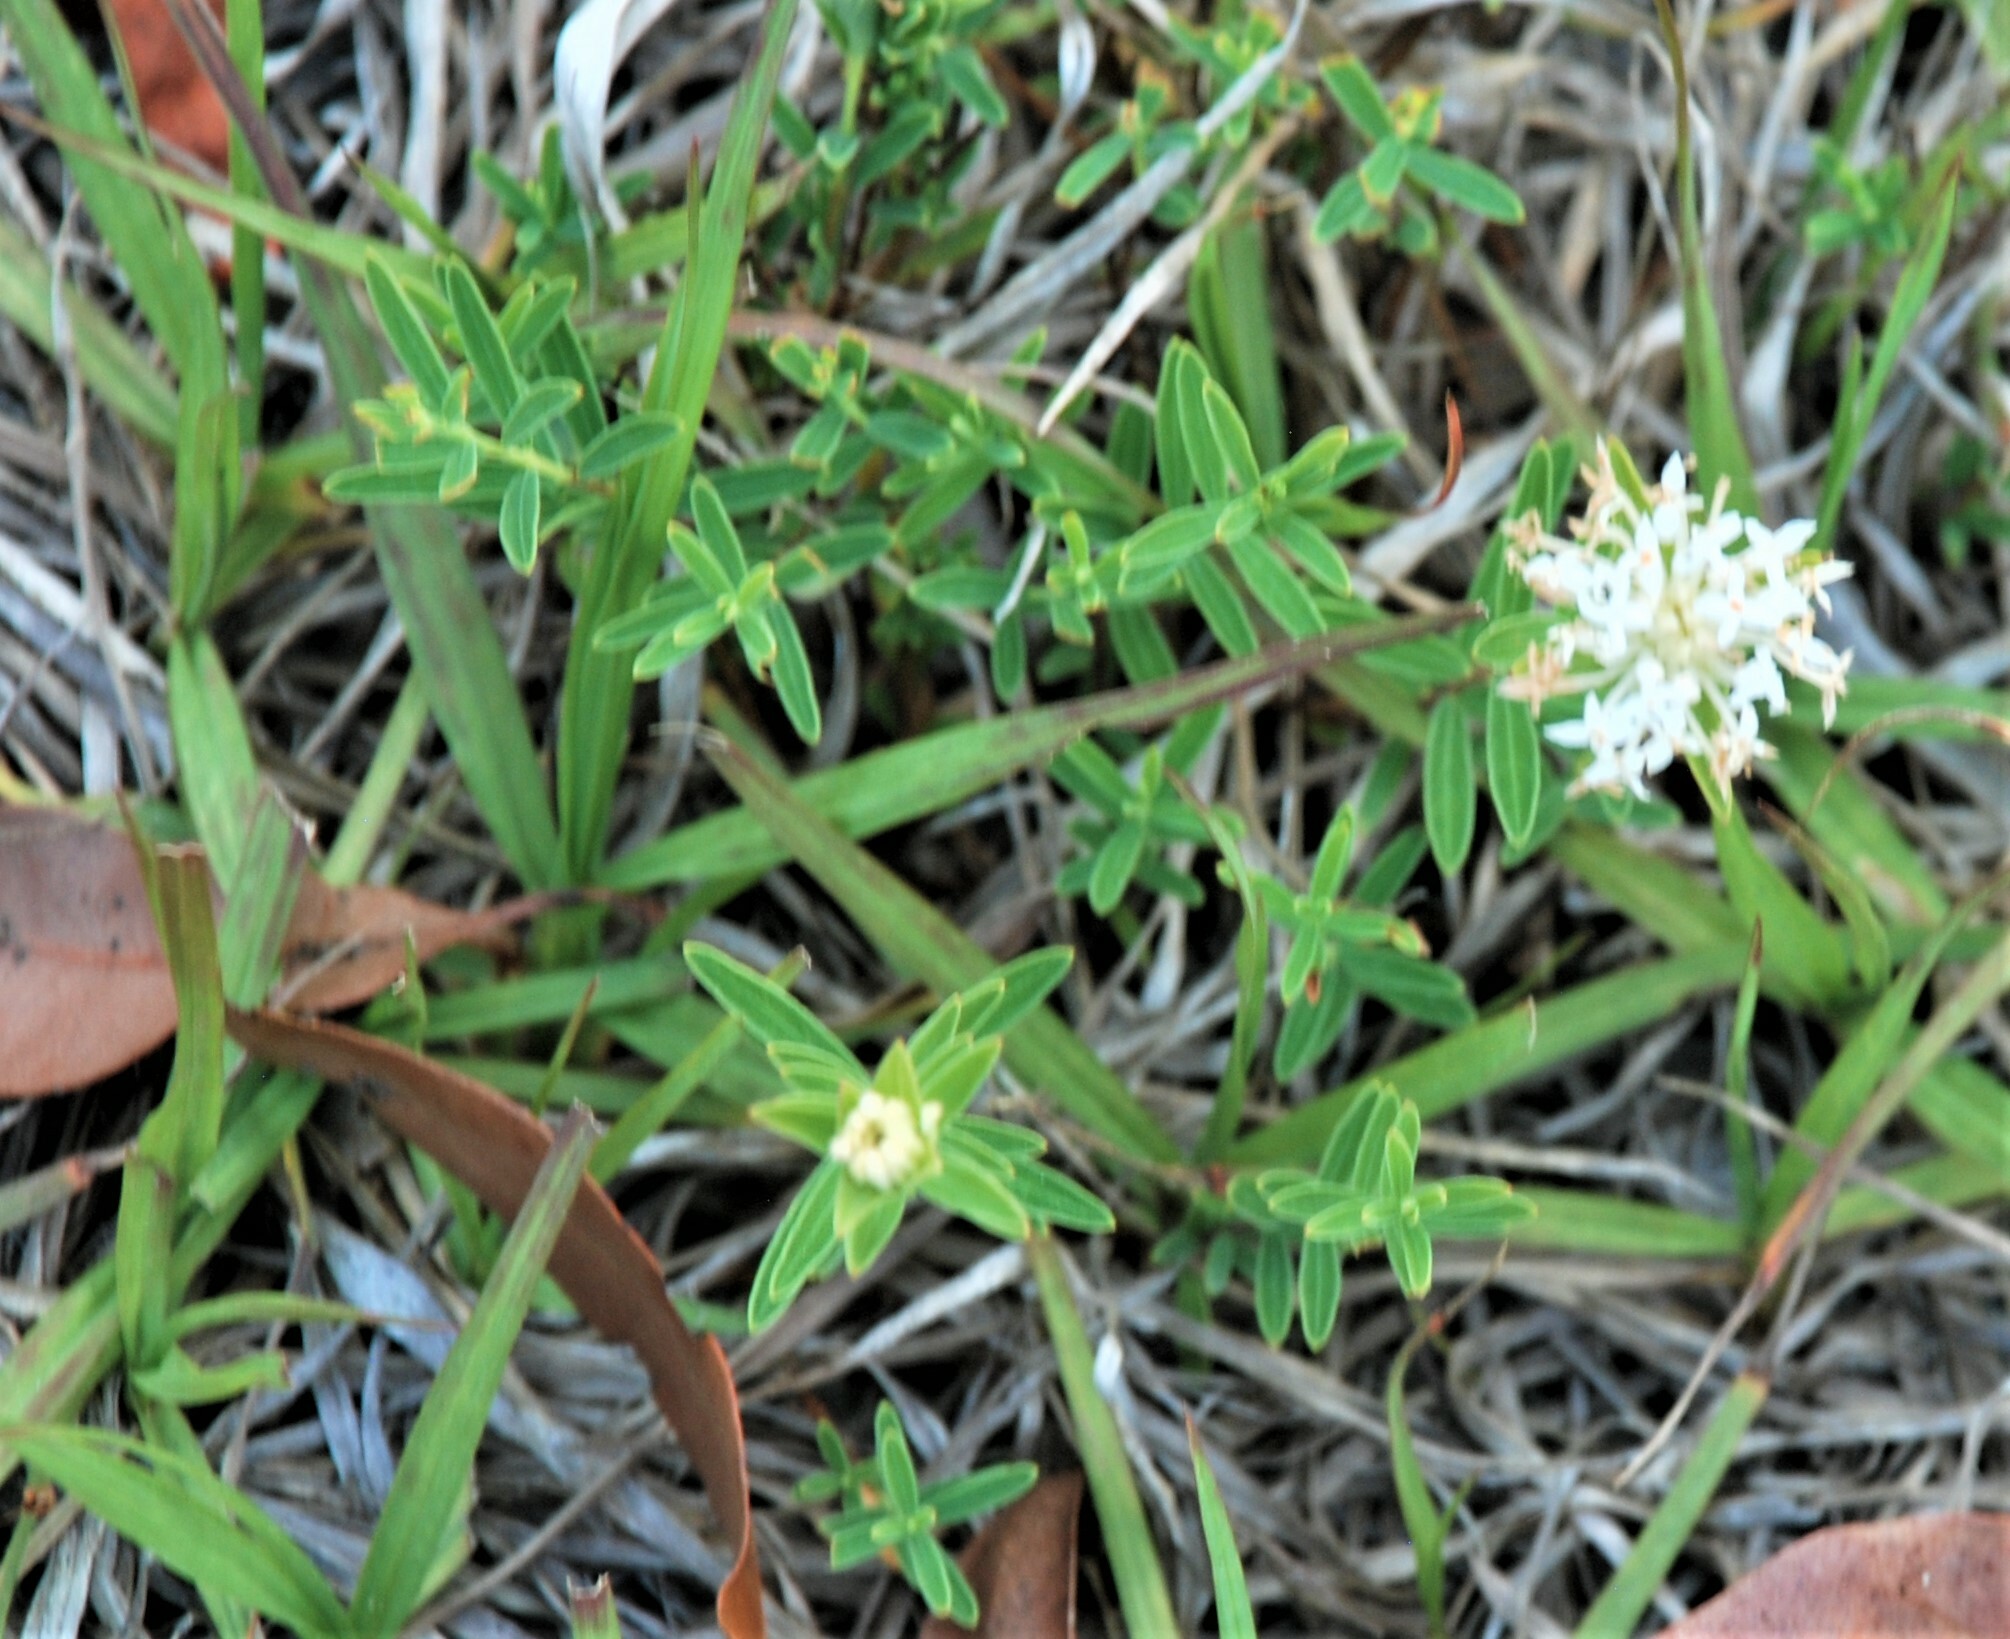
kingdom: Plantae
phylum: Tracheophyta
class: Magnoliopsida
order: Malvales
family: Thymelaeaceae
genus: Pimelea
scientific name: Pimelea linifolia
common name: Queen-of-the-bush
